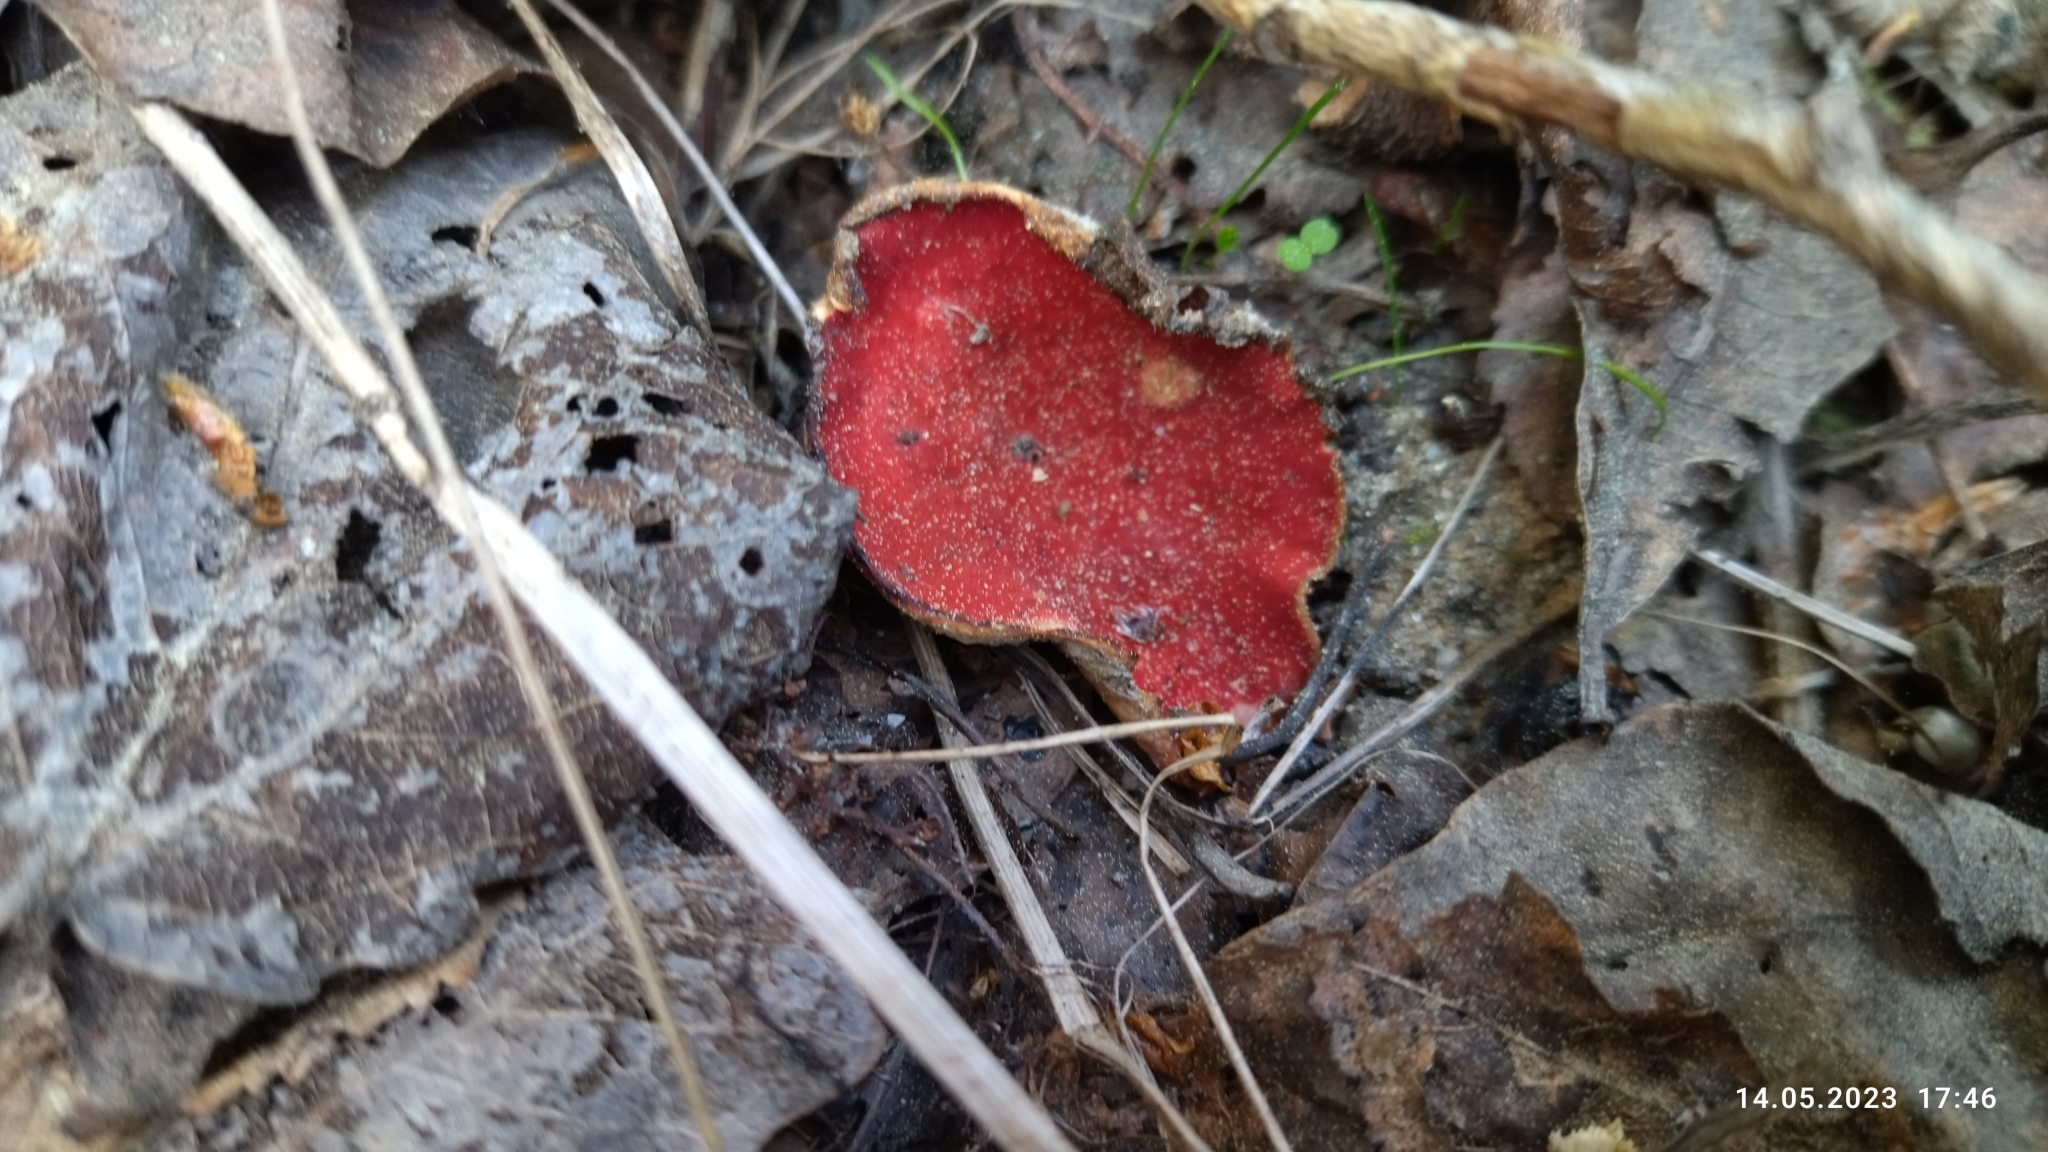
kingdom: Fungi
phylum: Ascomycota
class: Pezizomycetes
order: Pezizales
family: Sarcoscyphaceae
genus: Sarcoscypha
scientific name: Sarcoscypha austriaca
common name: Scarlet elfcup
